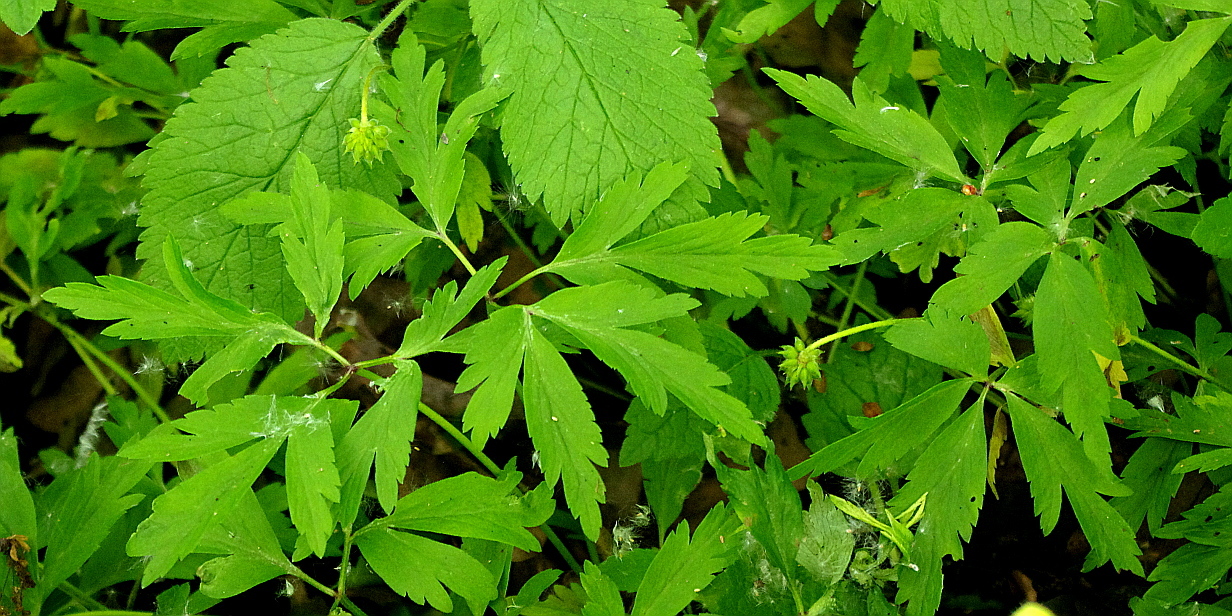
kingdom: Plantae
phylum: Tracheophyta
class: Magnoliopsida
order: Ranunculales
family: Ranunculaceae
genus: Anemone
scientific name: Anemone nemorosa
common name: Wood anemone
